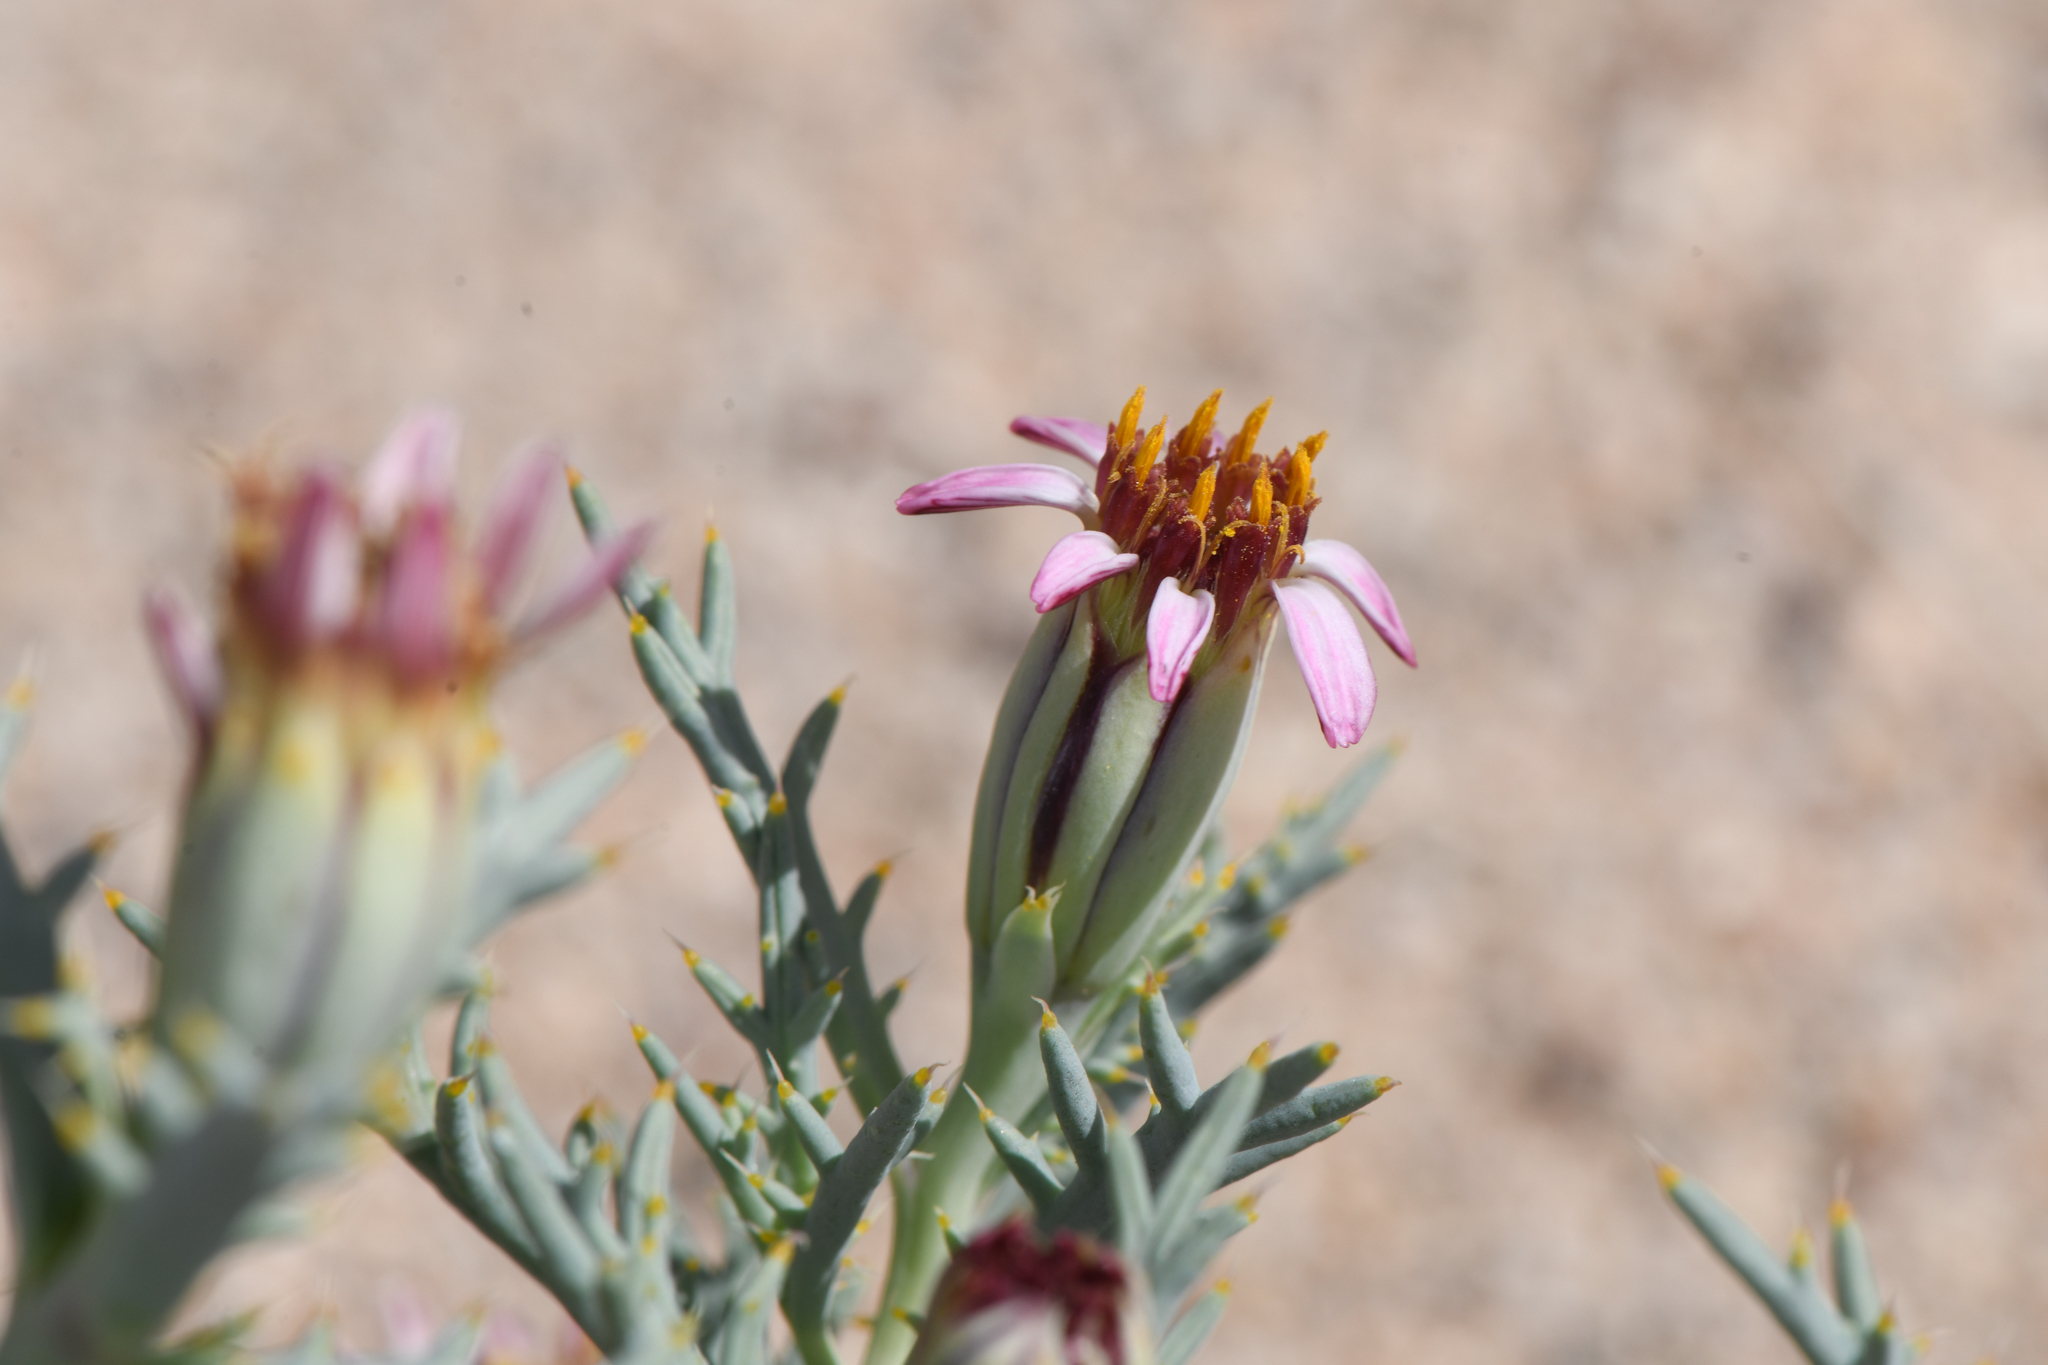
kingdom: Plantae
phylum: Tracheophyta
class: Magnoliopsida
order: Asterales
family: Asteraceae
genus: Nicolletia
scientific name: Nicolletia occidentalis
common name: Hole-in-the-sand-plant
